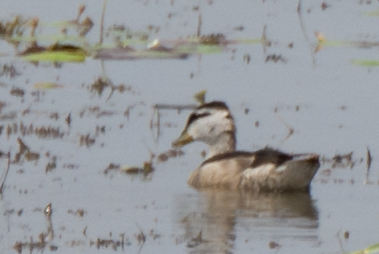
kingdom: Animalia
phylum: Chordata
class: Aves
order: Anseriformes
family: Anatidae
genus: Nettapus
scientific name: Nettapus coromandelianus
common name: Cotton pygmy-goose
